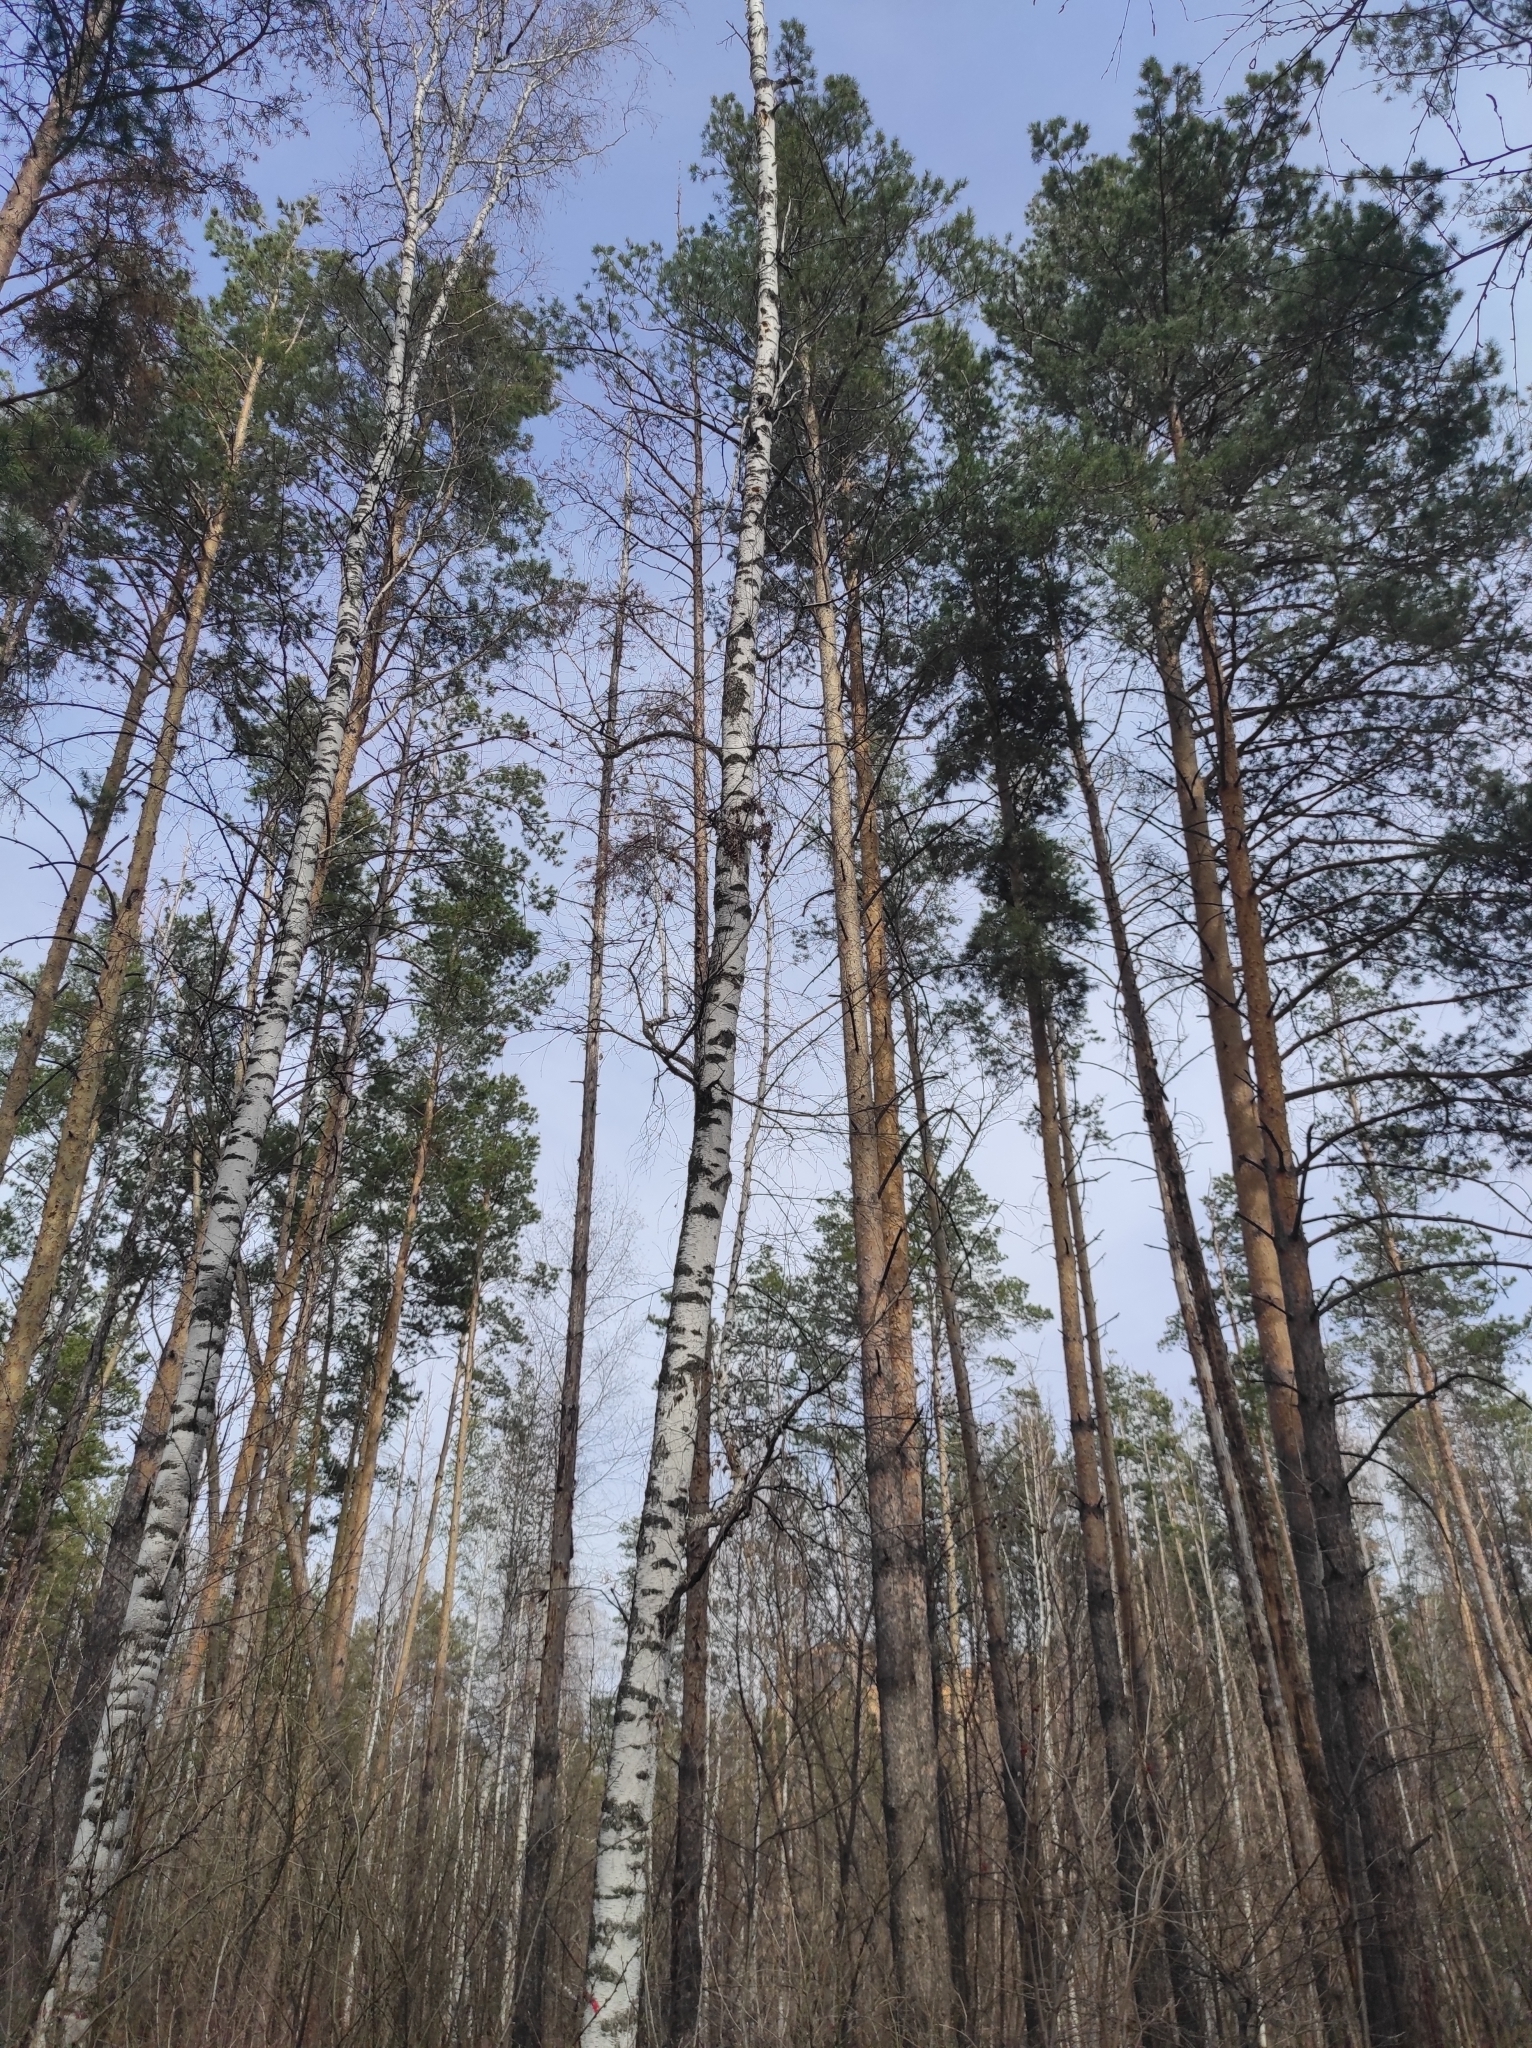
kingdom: Plantae
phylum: Tracheophyta
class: Pinopsida
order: Pinales
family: Pinaceae
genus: Pinus
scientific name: Pinus sylvestris
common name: Scots pine
